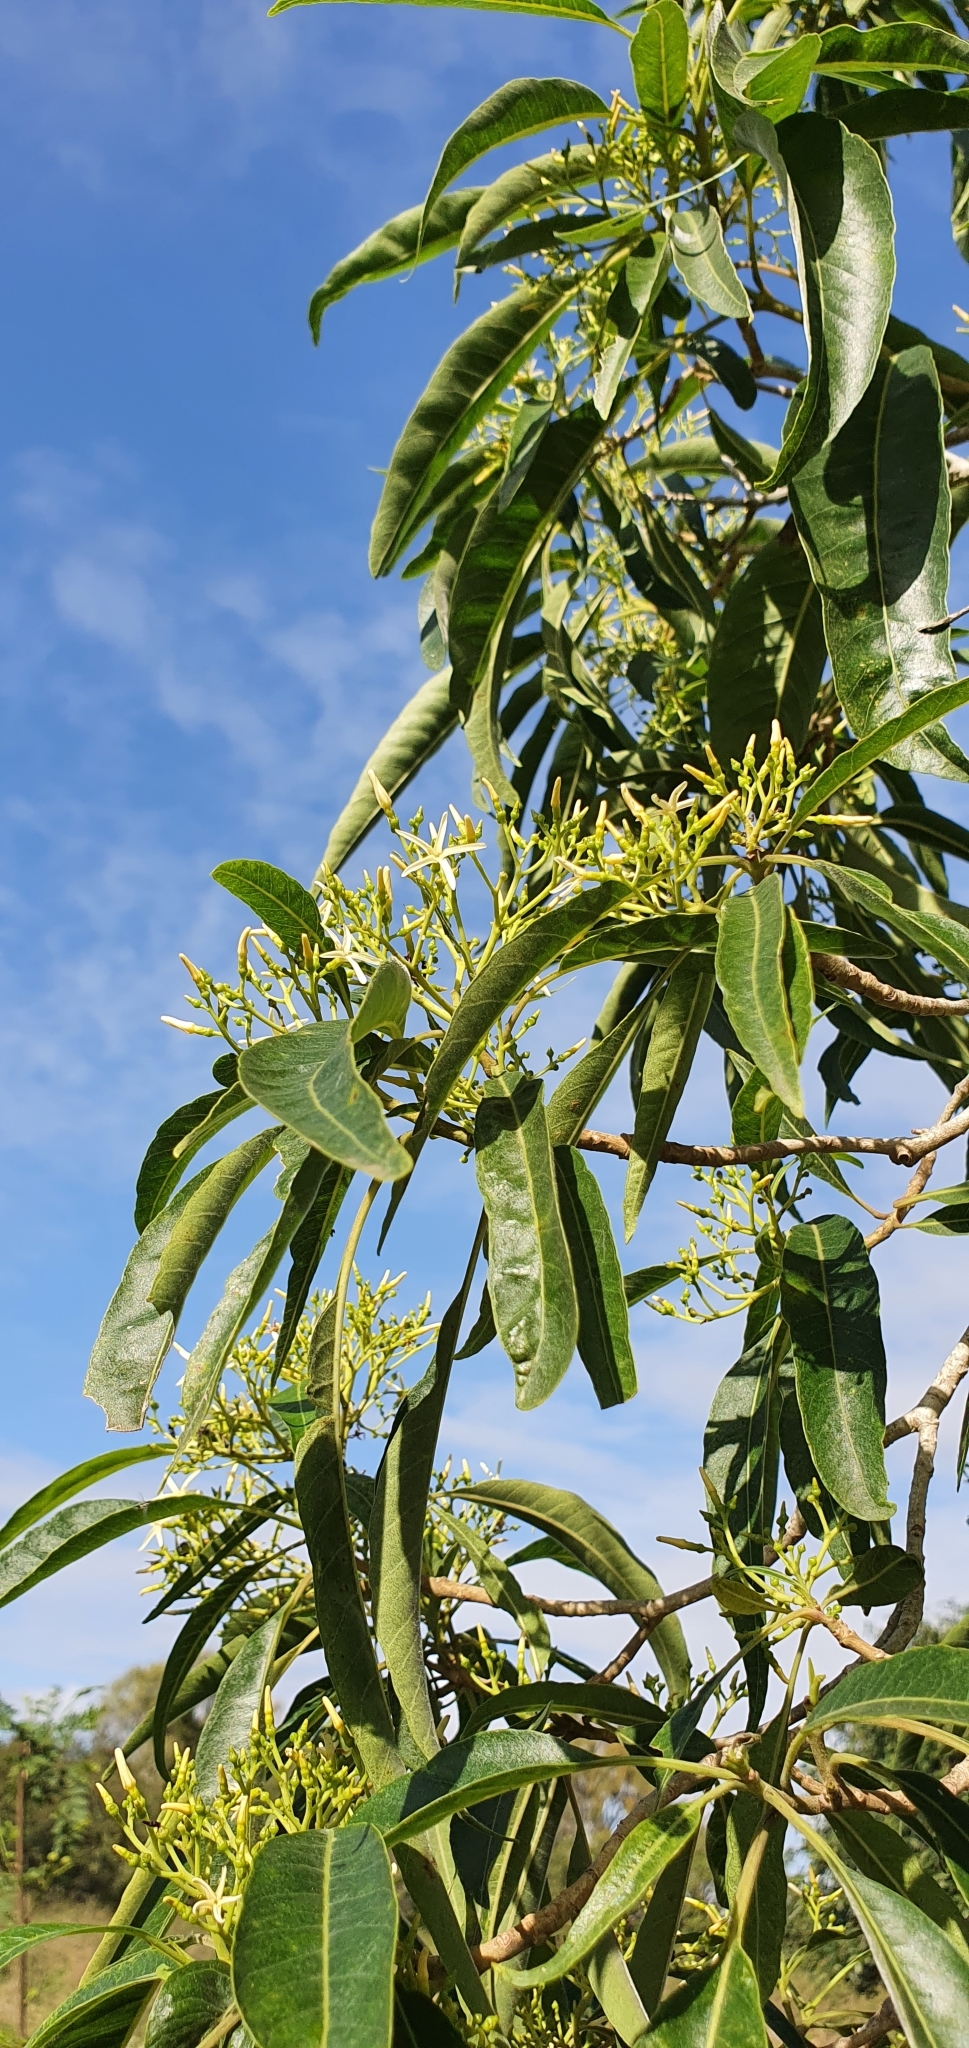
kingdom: Plantae
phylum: Tracheophyta
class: Magnoliopsida
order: Gentianales
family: Apocynaceae
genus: Alstonia
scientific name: Alstonia mollis
